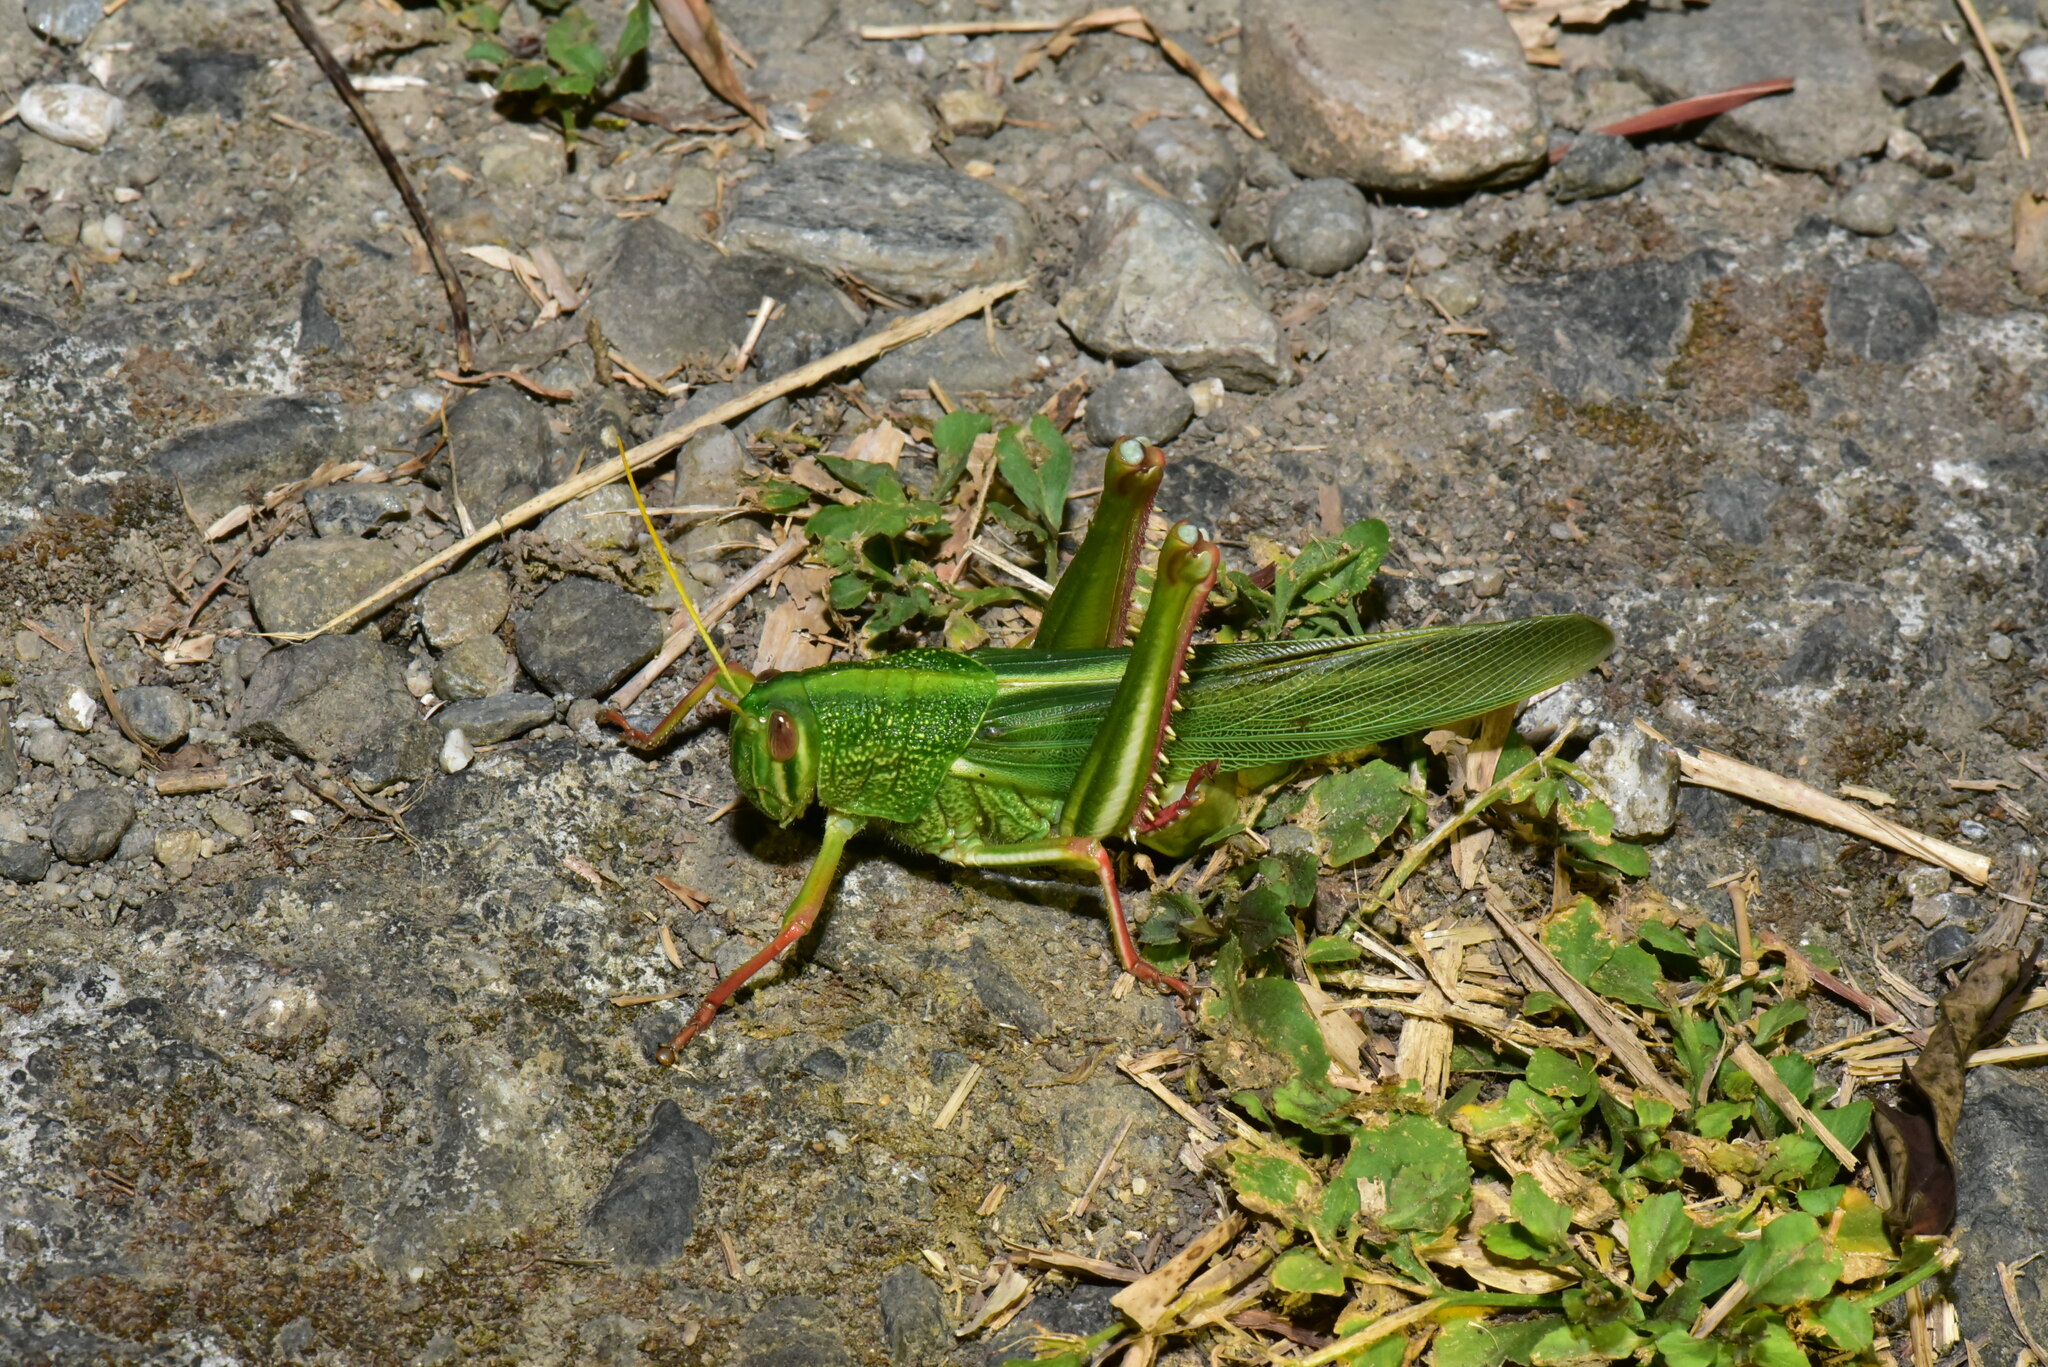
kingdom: Animalia
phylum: Arthropoda
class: Insecta
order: Orthoptera
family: Acrididae
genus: Chondracris
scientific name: Chondracris rosea
